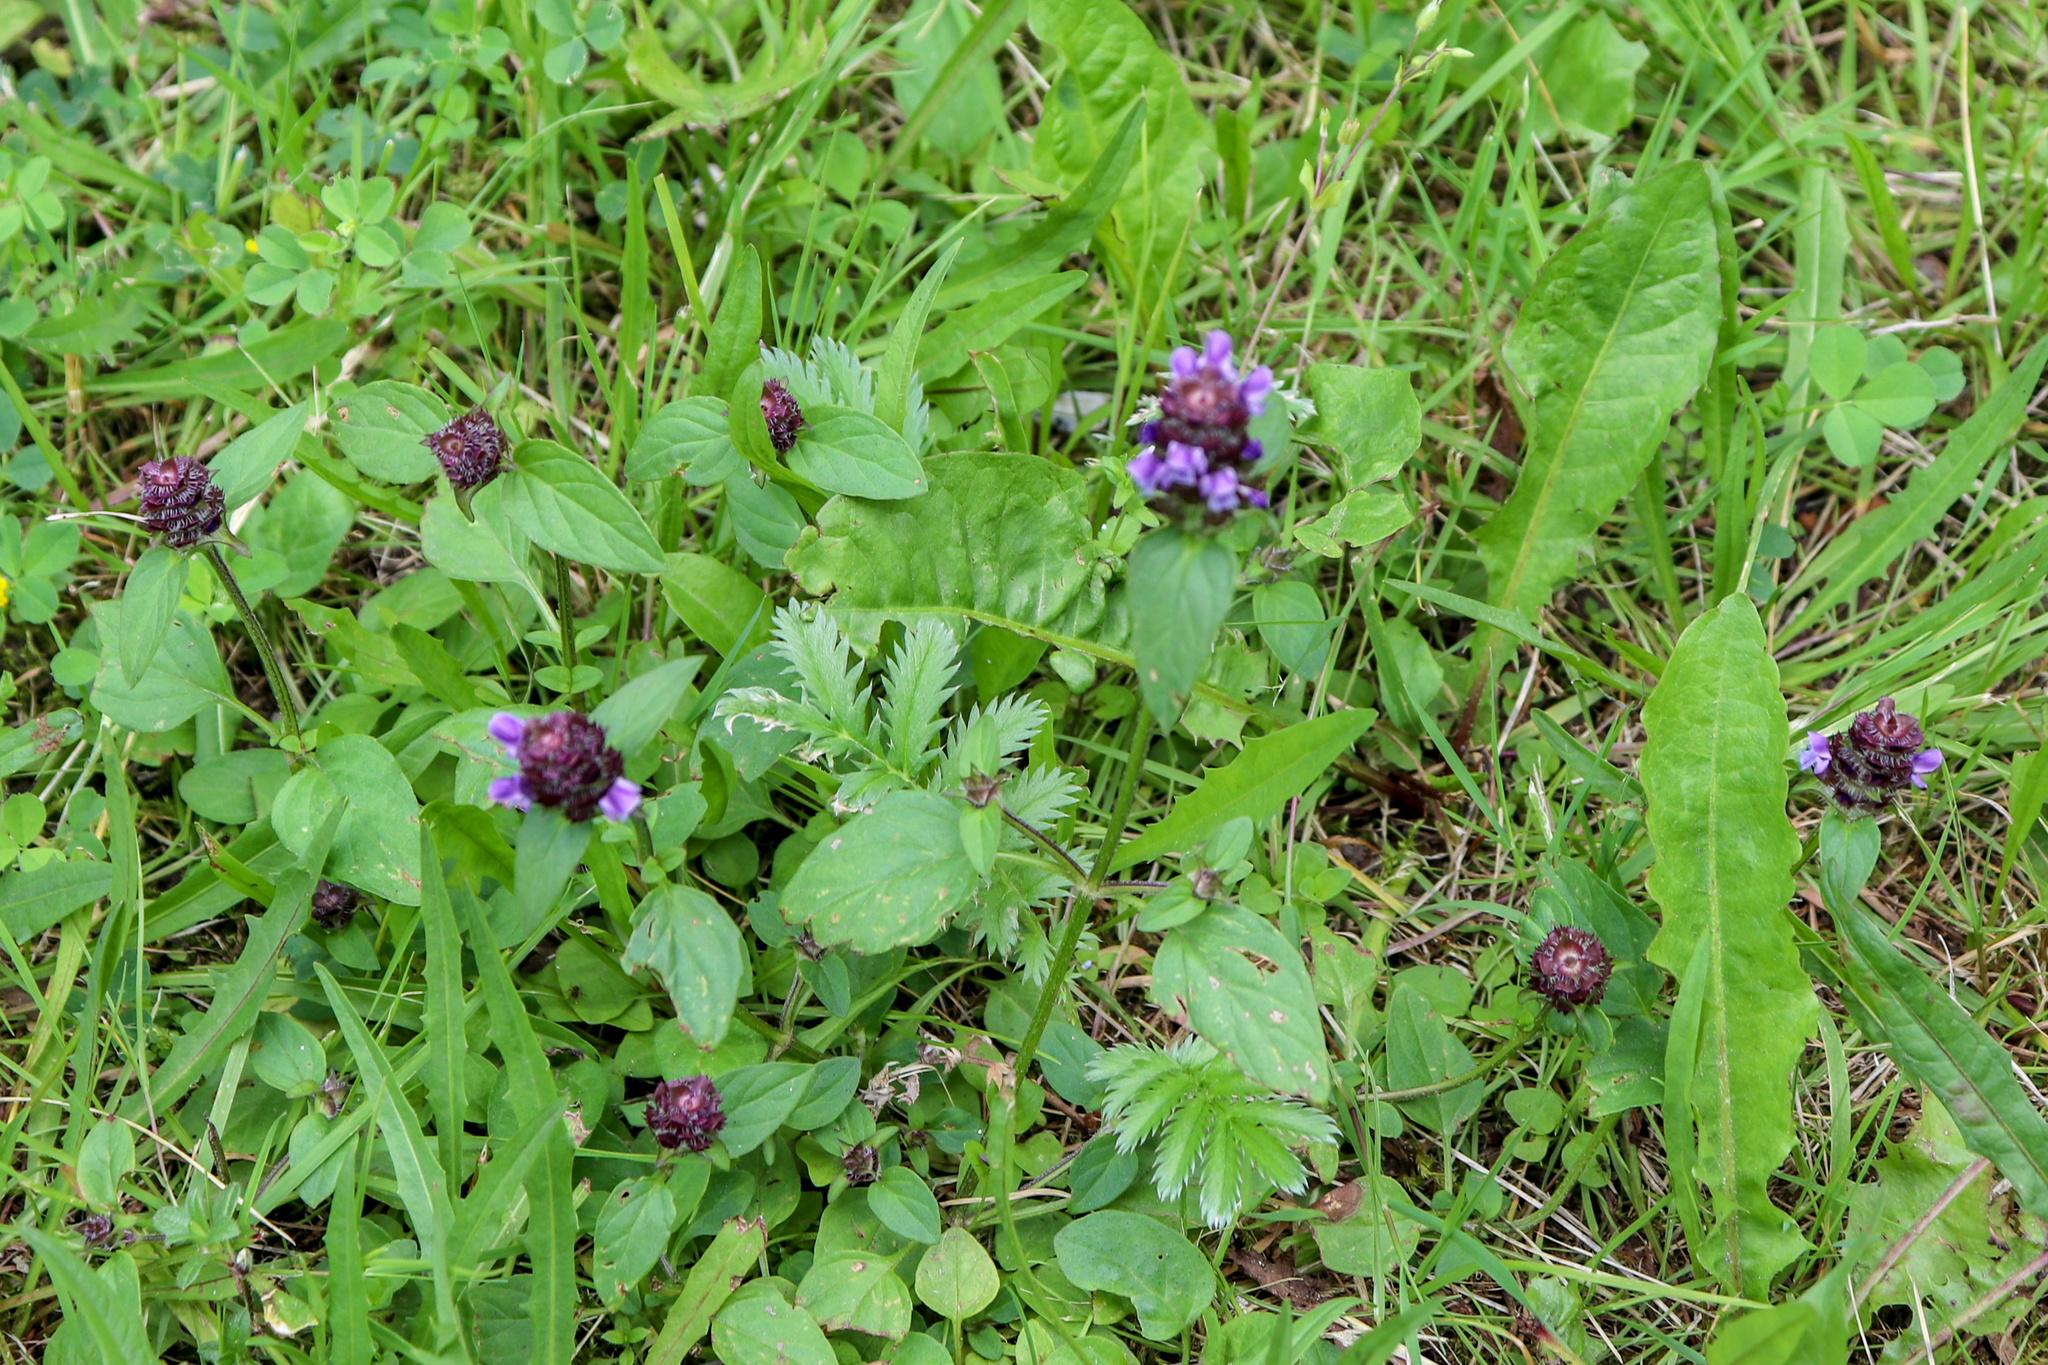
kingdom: Plantae
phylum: Tracheophyta
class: Magnoliopsida
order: Lamiales
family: Lamiaceae
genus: Prunella
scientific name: Prunella vulgaris
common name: Heal-all
